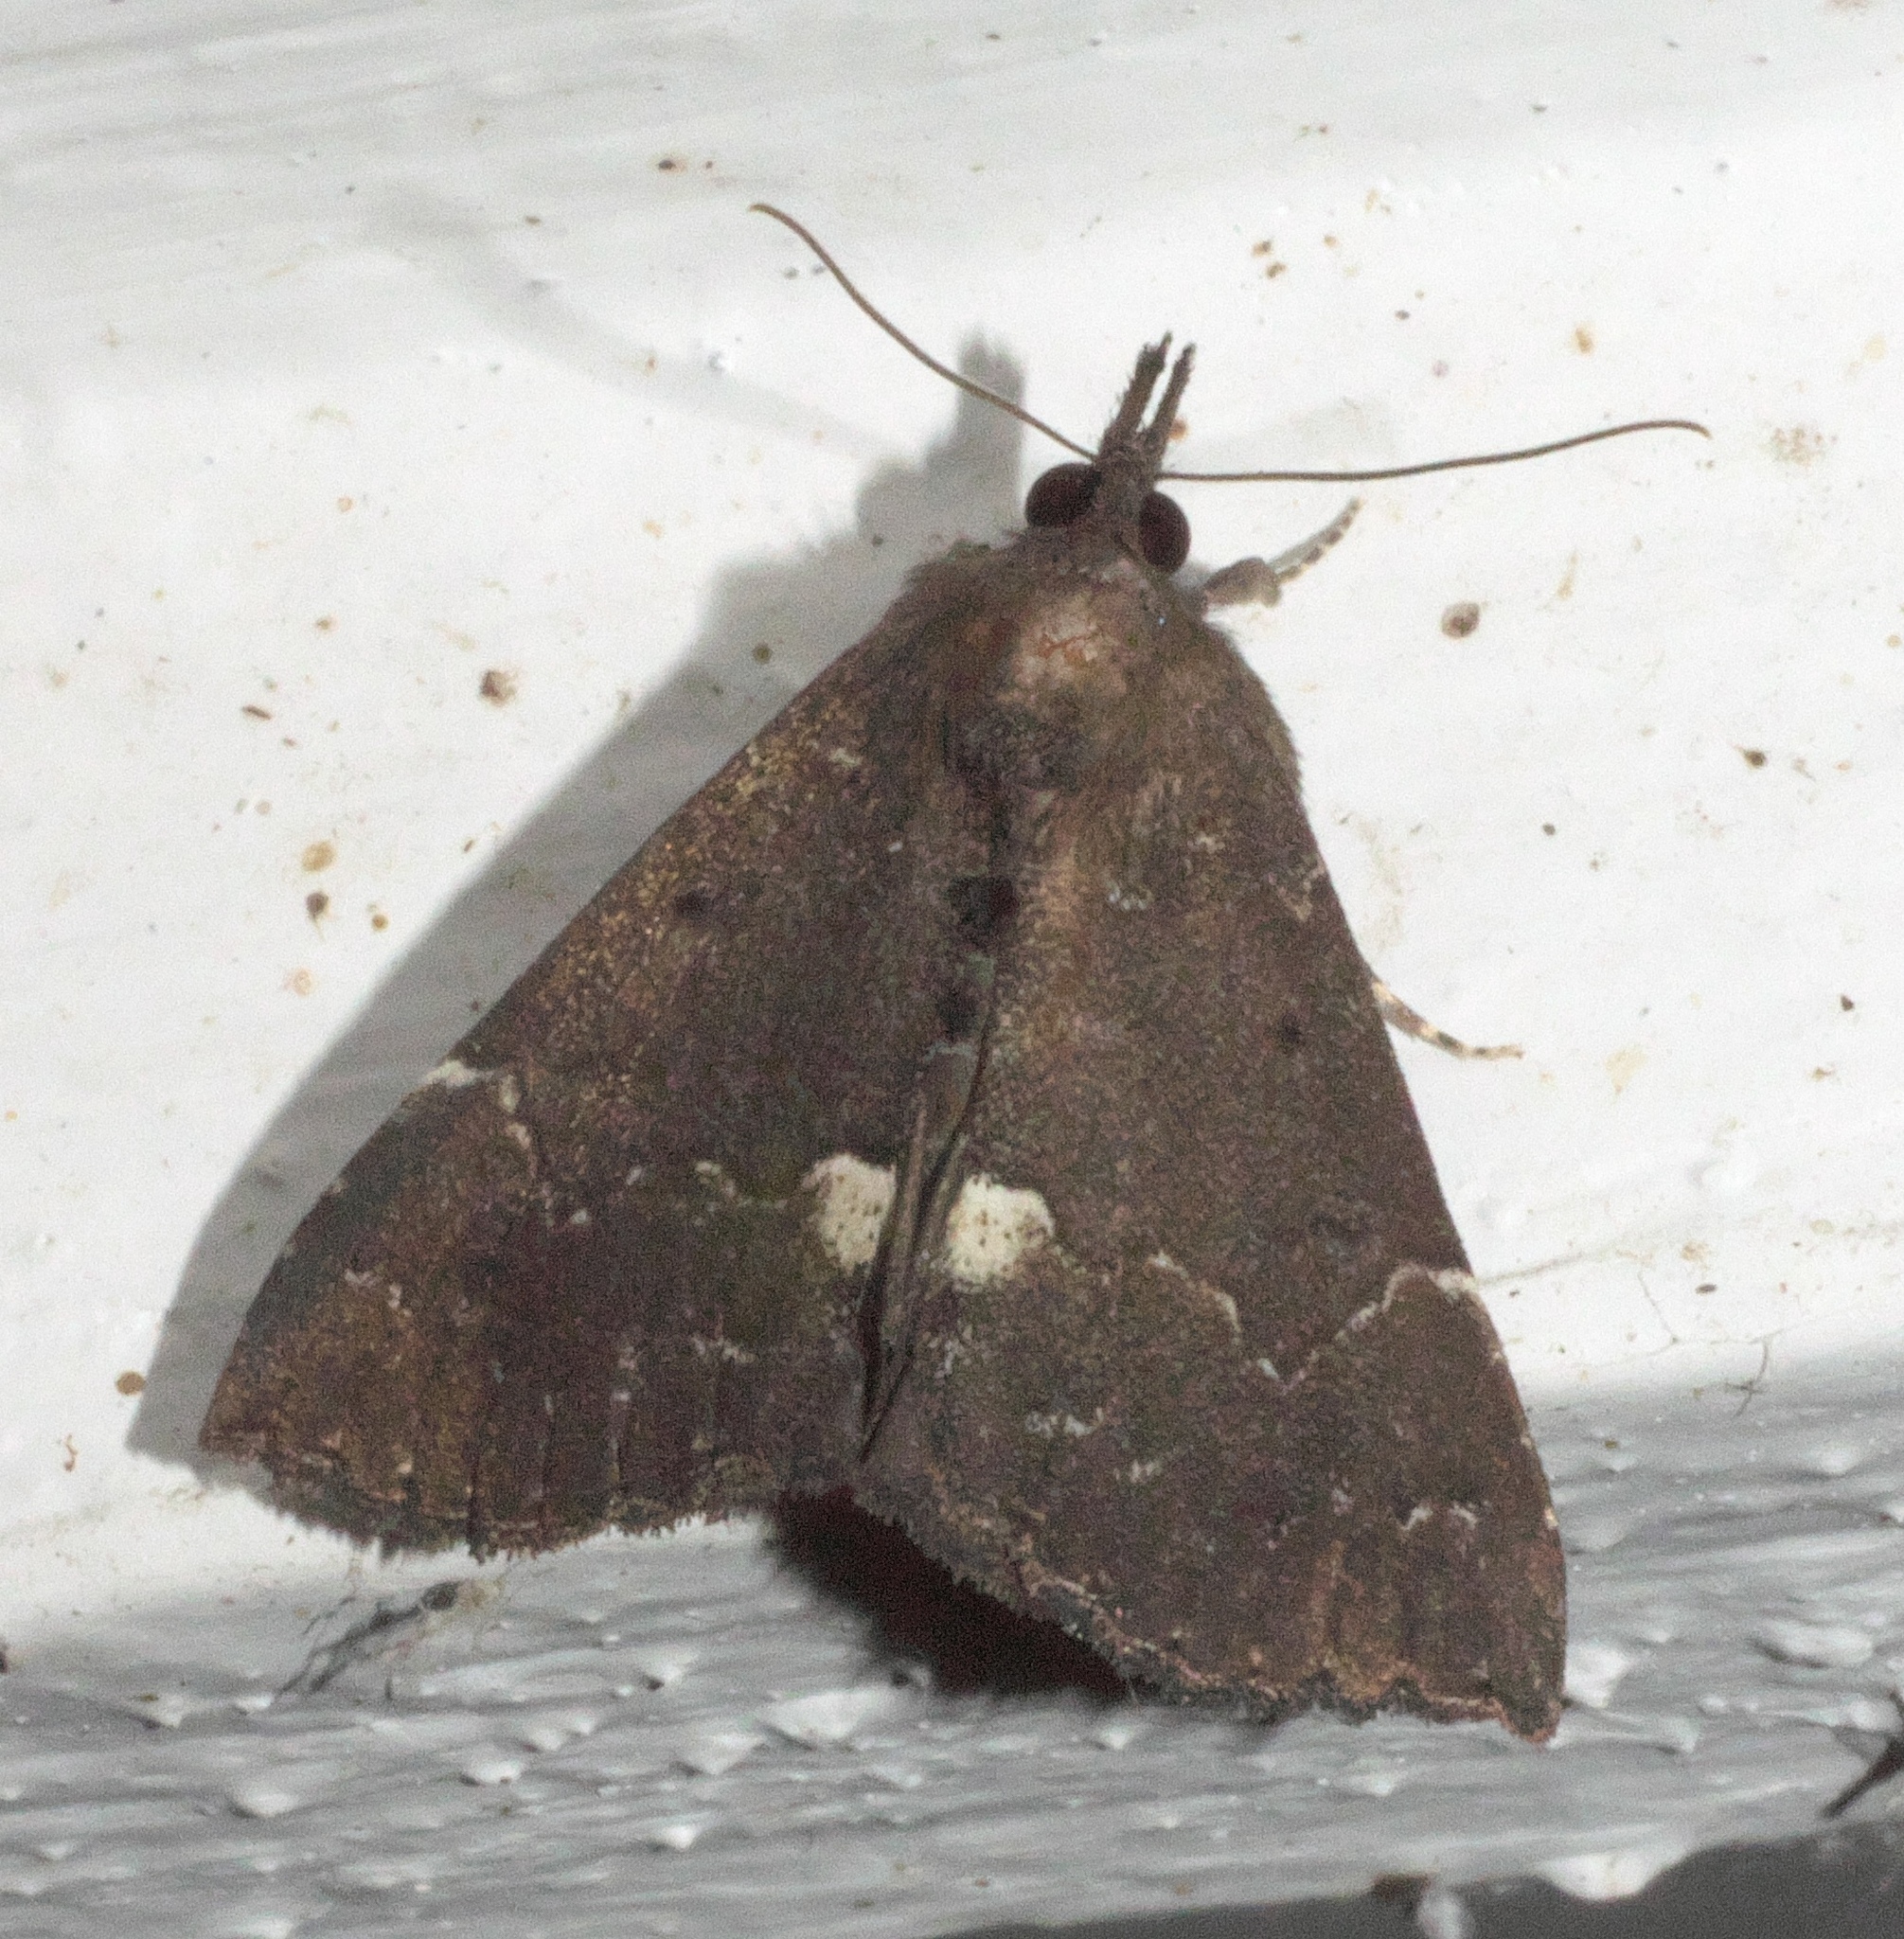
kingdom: Animalia
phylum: Arthropoda
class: Insecta
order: Lepidoptera
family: Erebidae
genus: Hypena
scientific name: Hypena bijugalis
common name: Dimorphic bomolocha moth
